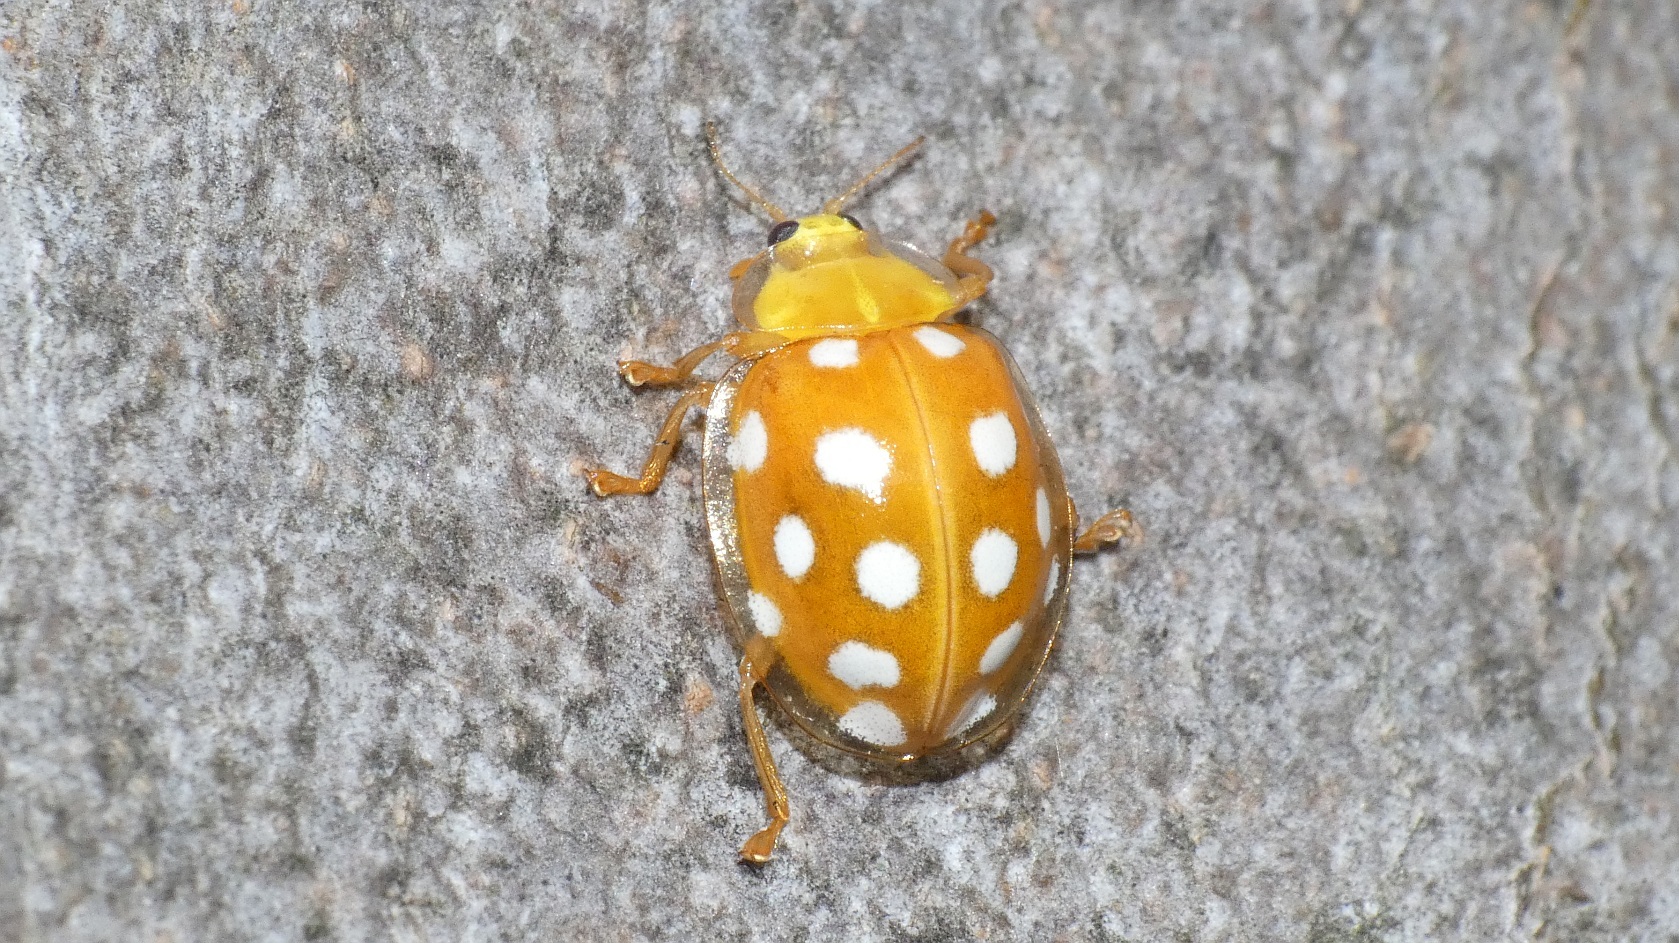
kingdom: Animalia
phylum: Arthropoda
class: Insecta
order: Coleoptera
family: Coccinellidae
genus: Halyzia
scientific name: Halyzia sedecimguttata
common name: Orange ladybird
